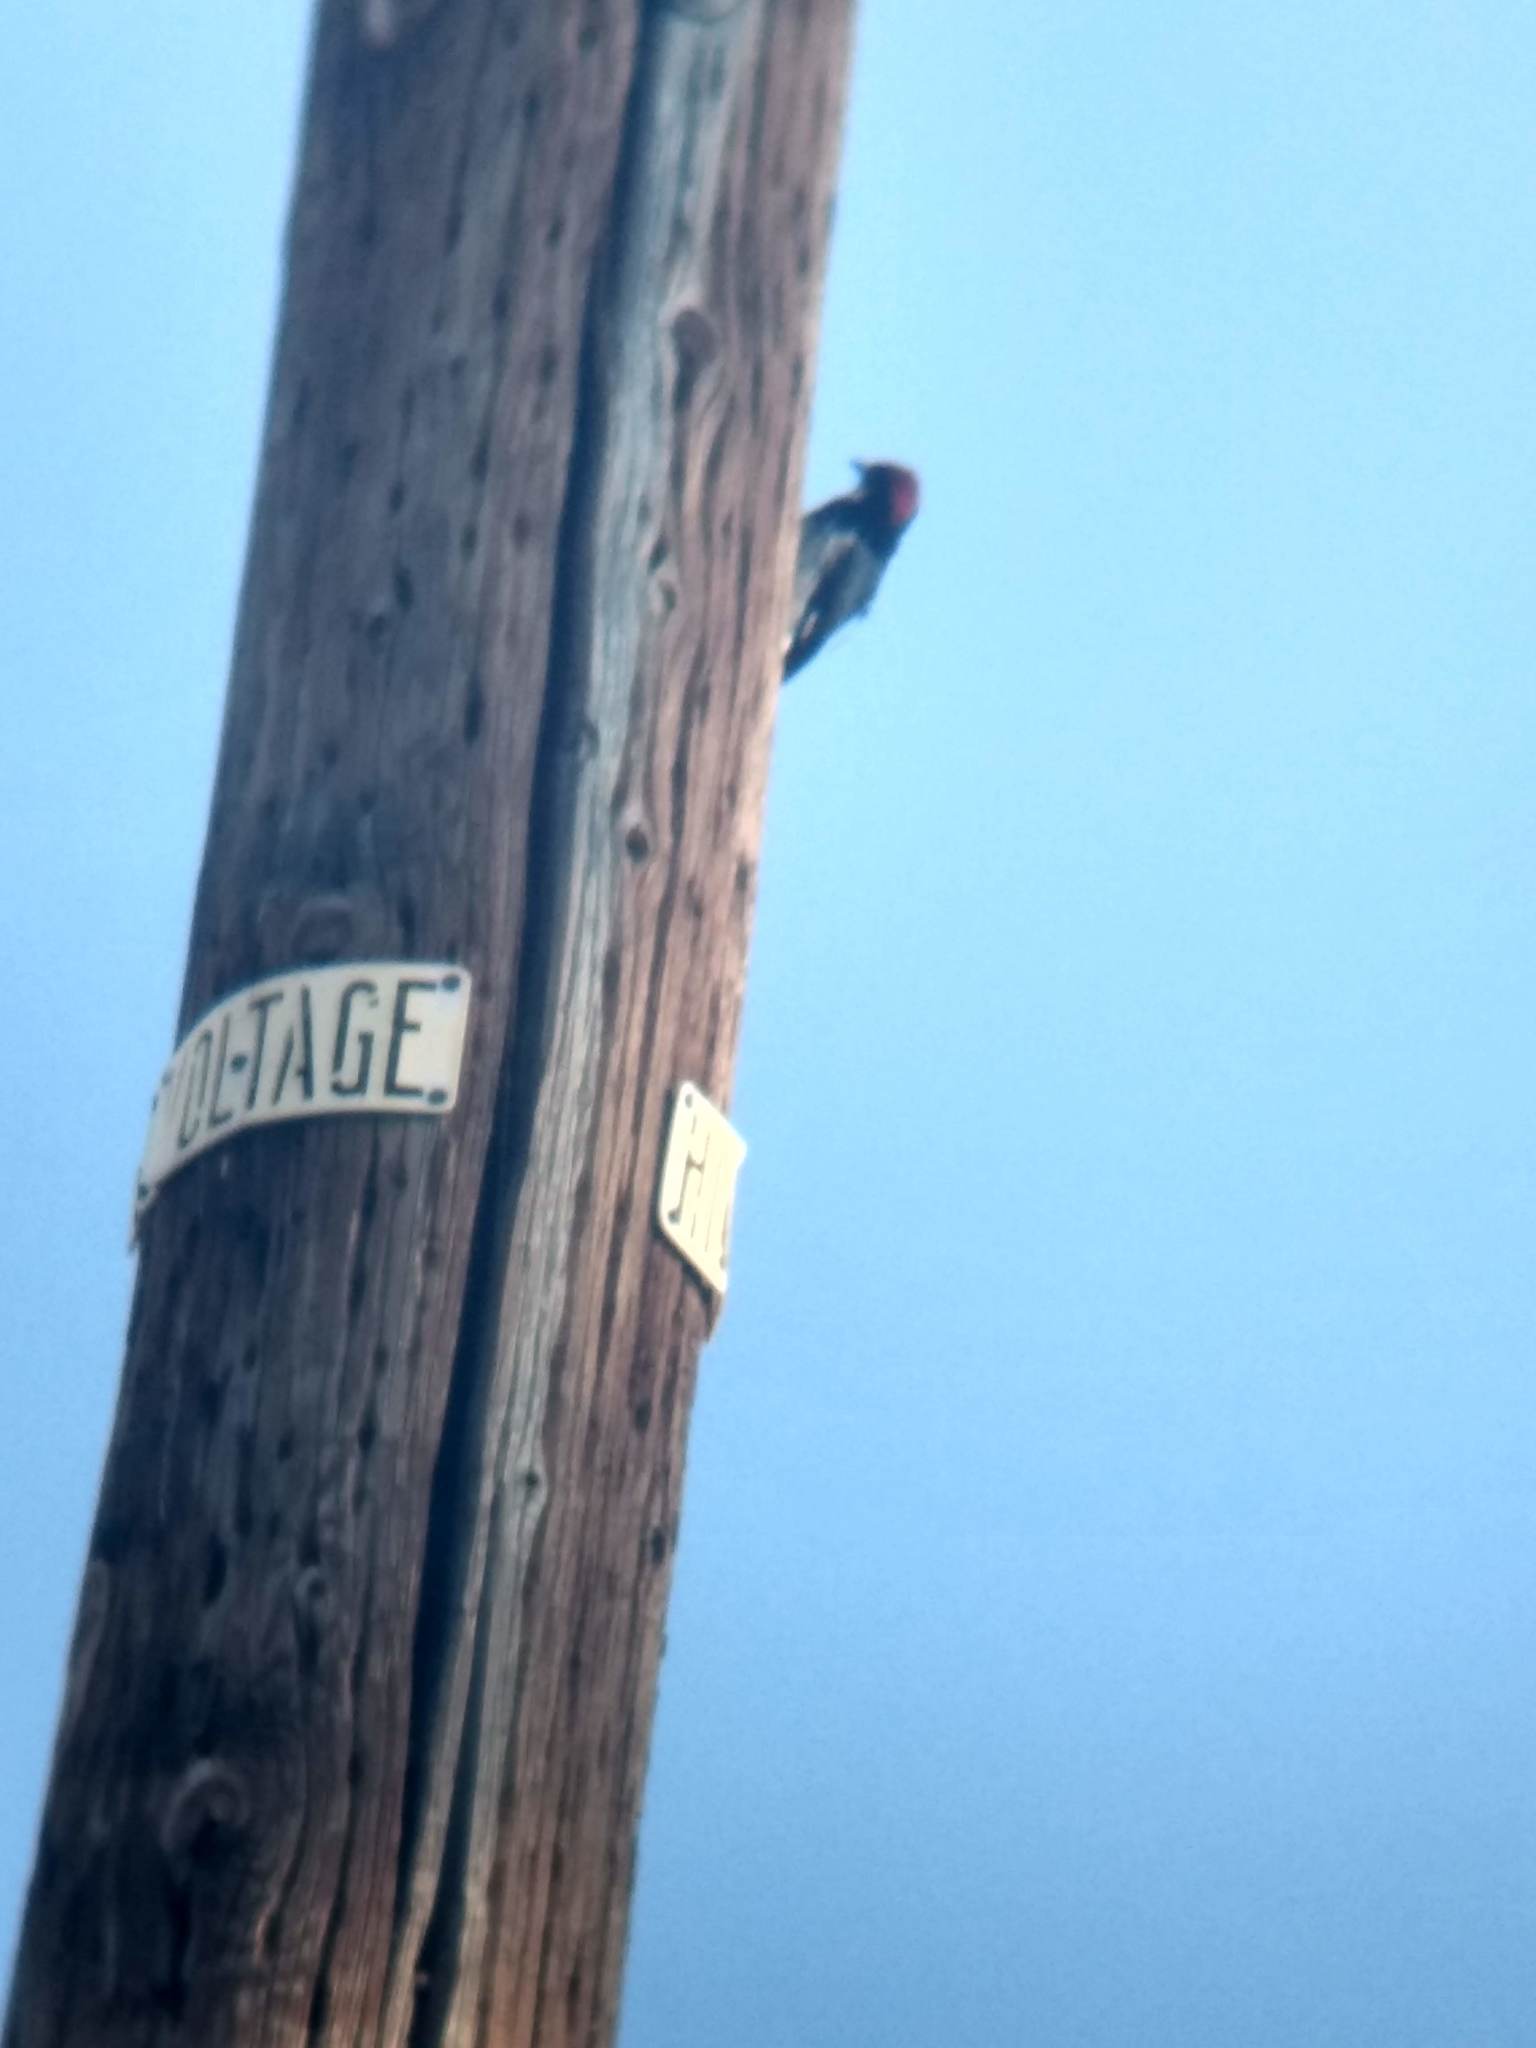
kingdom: Animalia
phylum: Chordata
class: Aves
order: Piciformes
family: Picidae
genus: Melanerpes
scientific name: Melanerpes formicivorus
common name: Acorn woodpecker
